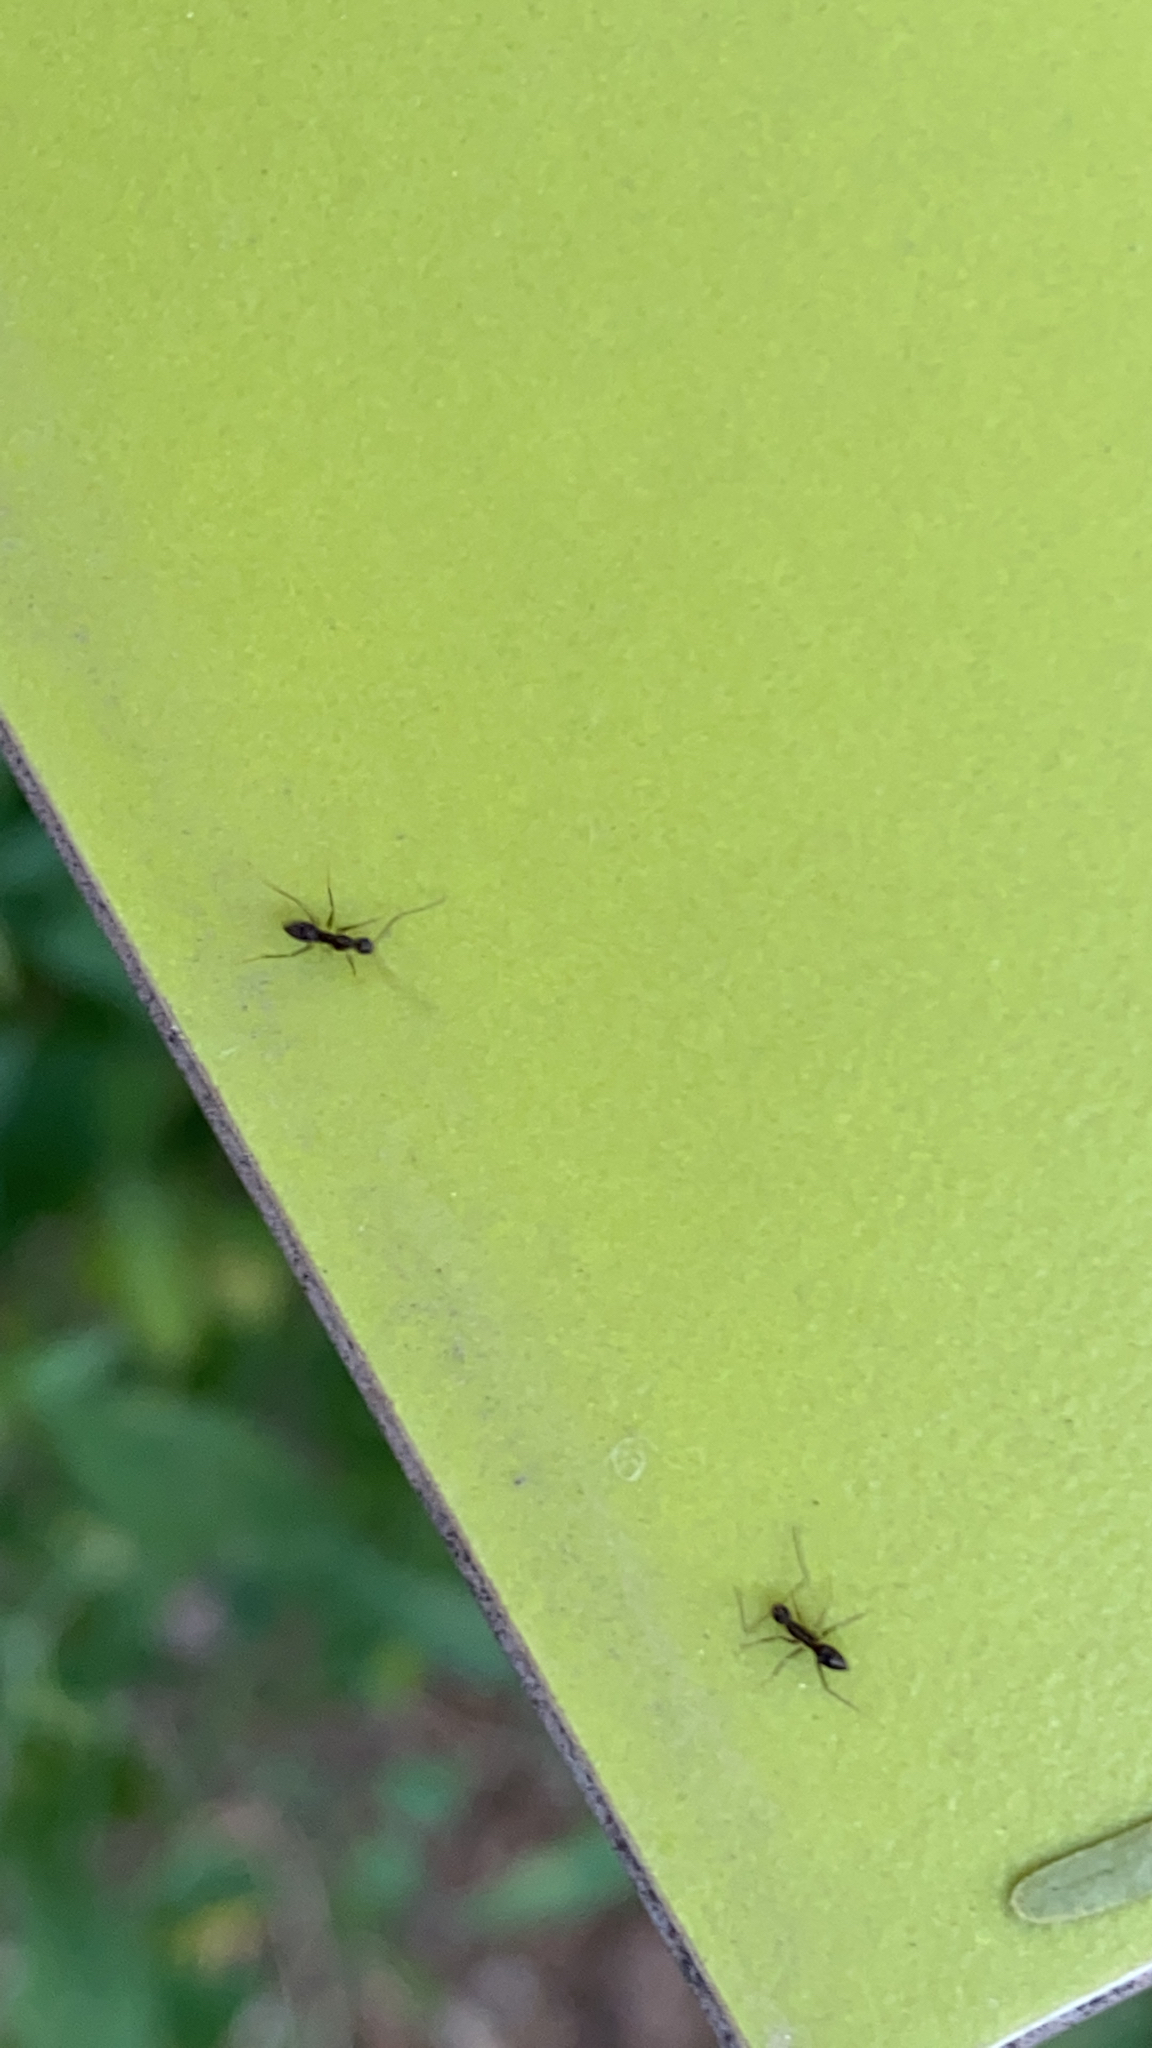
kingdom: Animalia
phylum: Arthropoda
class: Insecta
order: Hymenoptera
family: Formicidae
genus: Paratrechina
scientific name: Paratrechina longicornis
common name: Longhorned crazy ant
